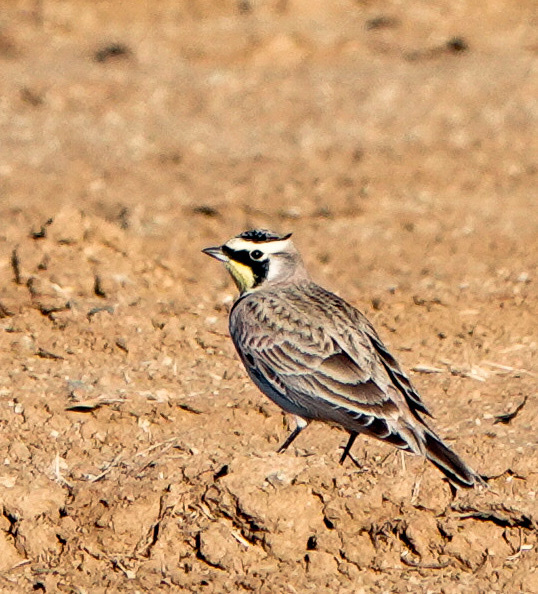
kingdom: Animalia
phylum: Chordata
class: Aves
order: Passeriformes
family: Alaudidae
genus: Eremophila
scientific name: Eremophila alpestris
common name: Horned lark
